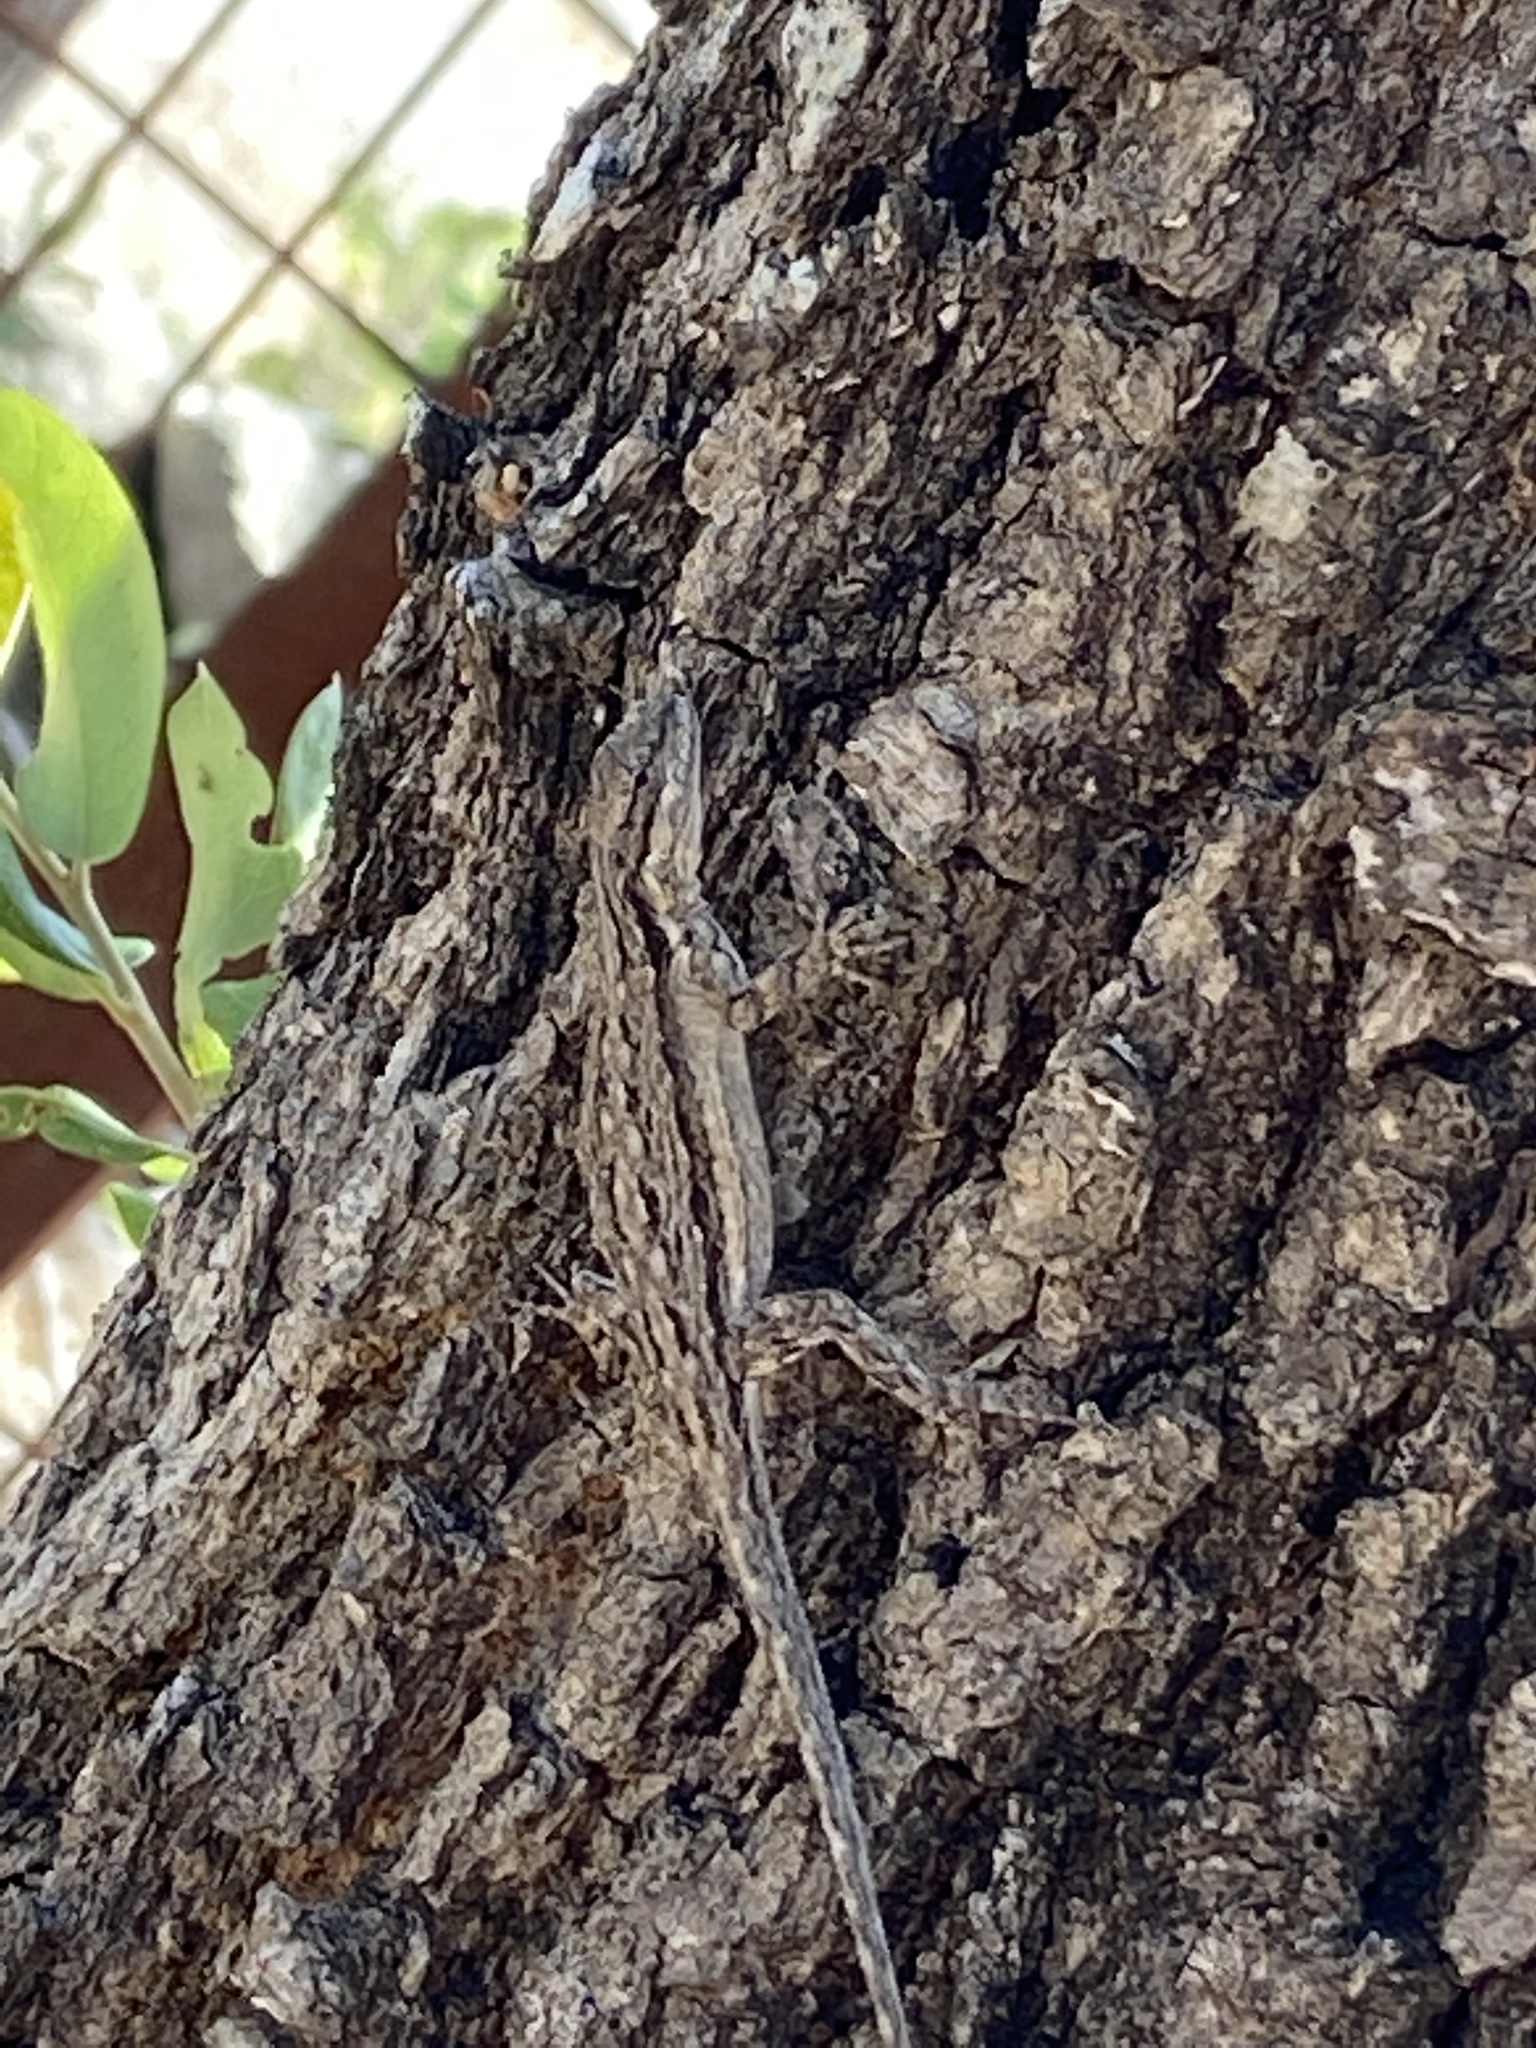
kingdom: Animalia
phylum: Chordata
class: Squamata
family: Phrynosomatidae
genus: Urosaurus
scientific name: Urosaurus ornatus
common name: Ornate tree lizard
